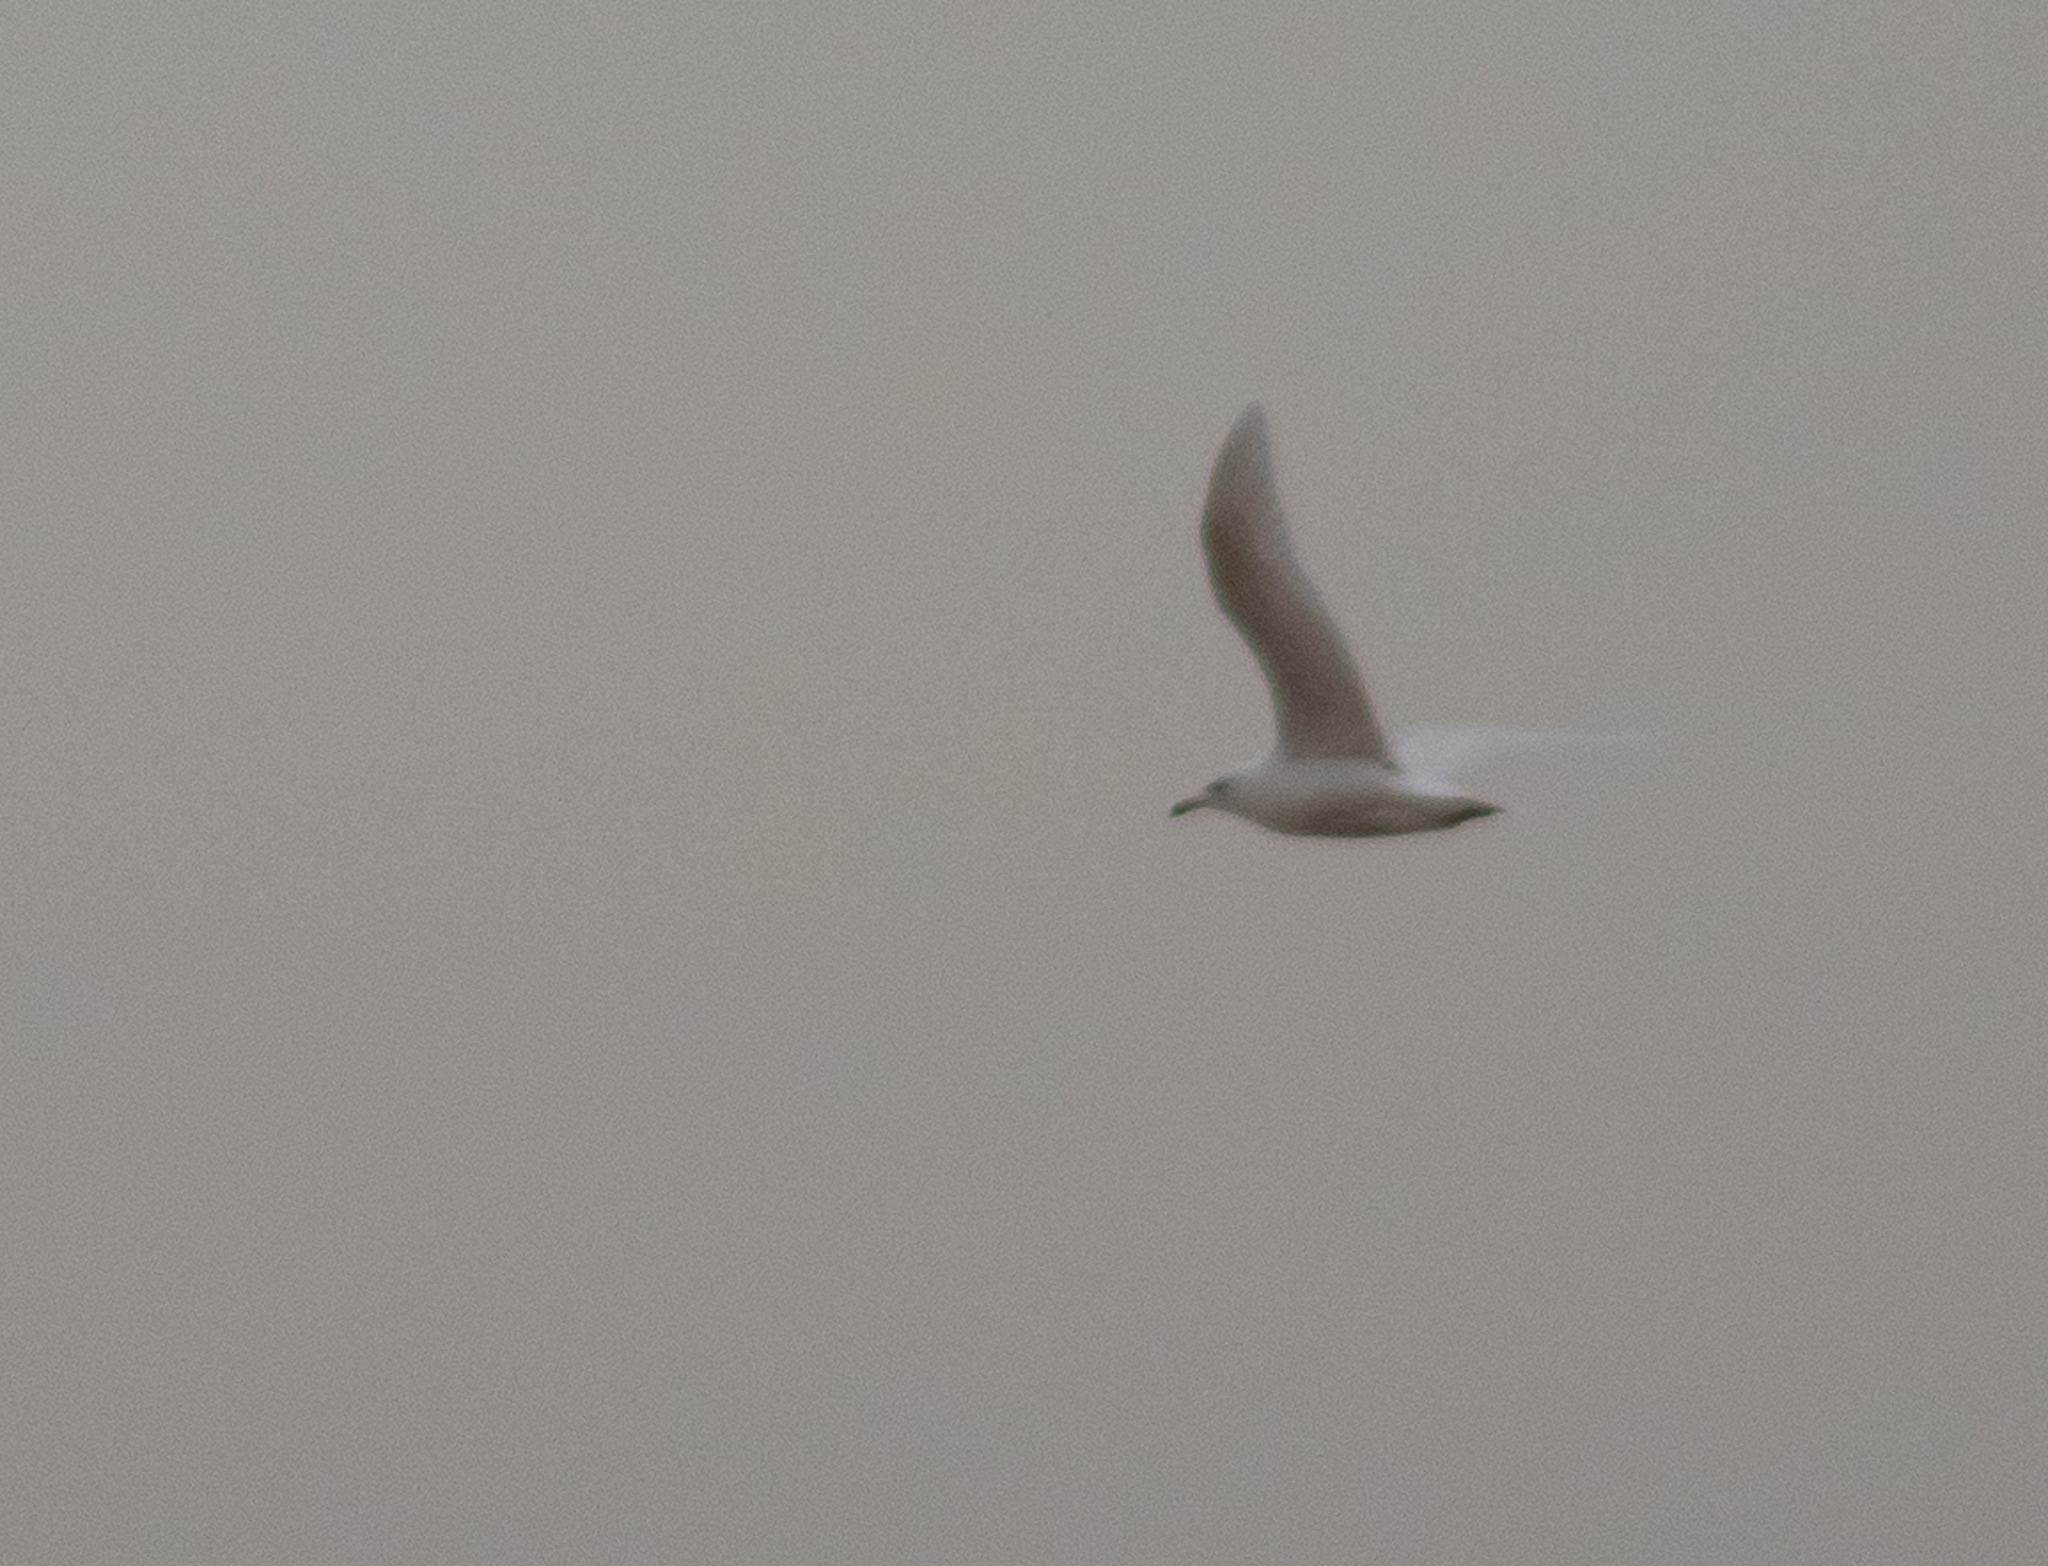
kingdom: Animalia
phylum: Chordata
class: Aves
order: Charadriiformes
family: Laridae
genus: Larus
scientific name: Larus glaucoides
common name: Iceland gull
